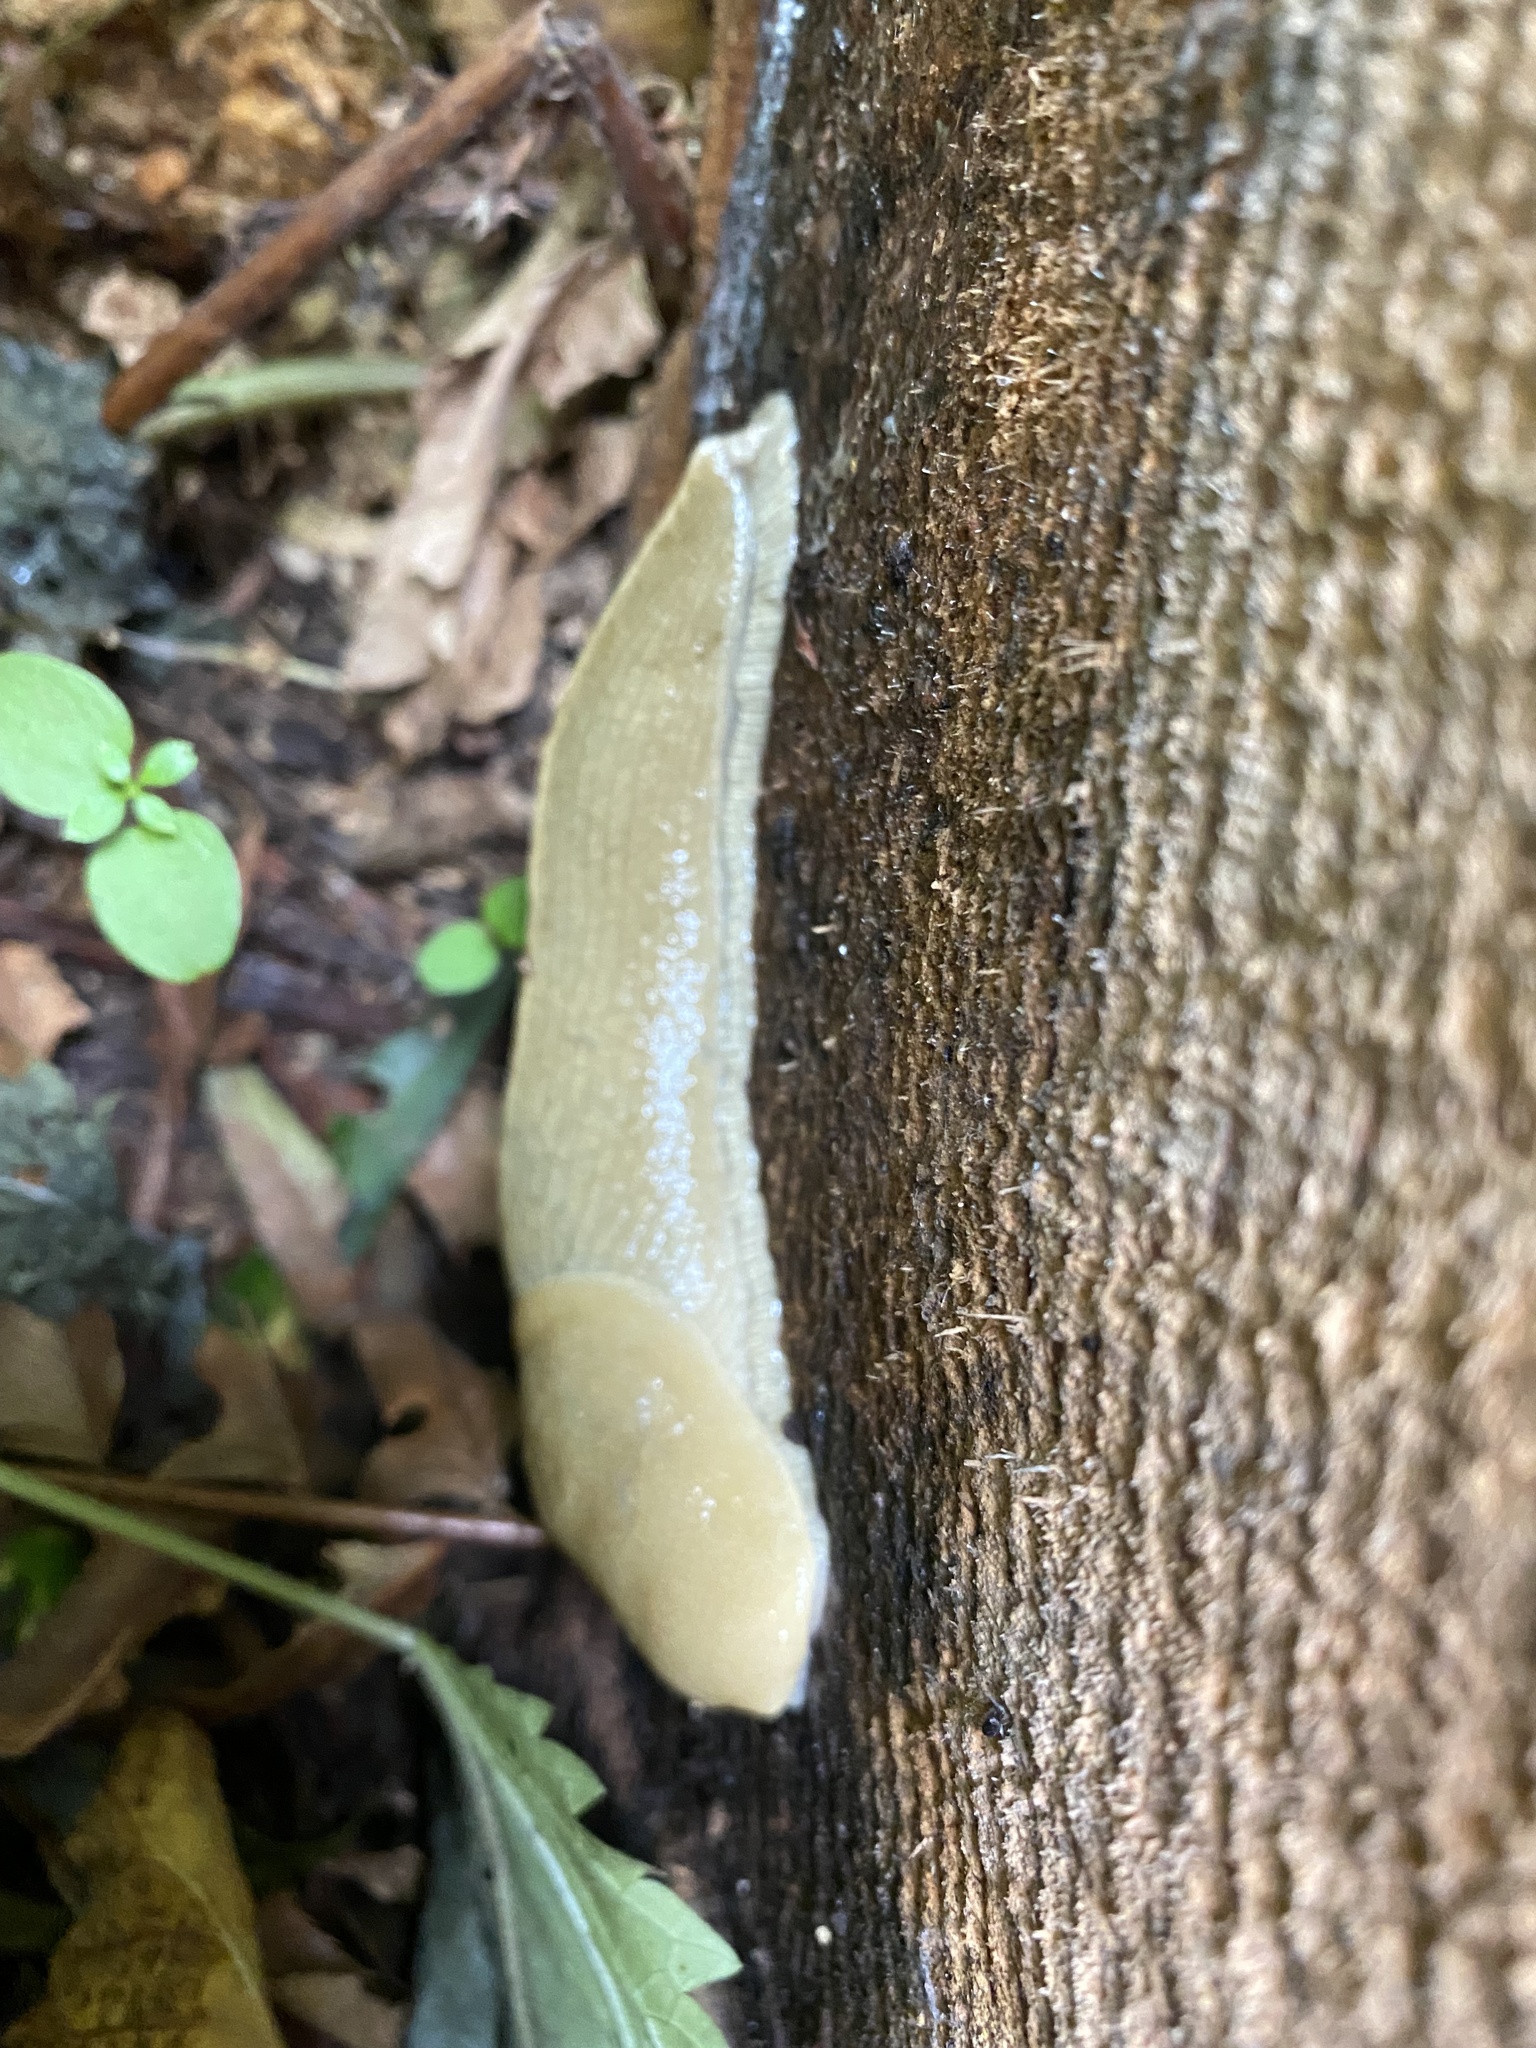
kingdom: Animalia
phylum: Mollusca
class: Gastropoda
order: Stylommatophora
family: Ariolimacidae
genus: Ariolimax
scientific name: Ariolimax columbianus
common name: Pacific banana slug
